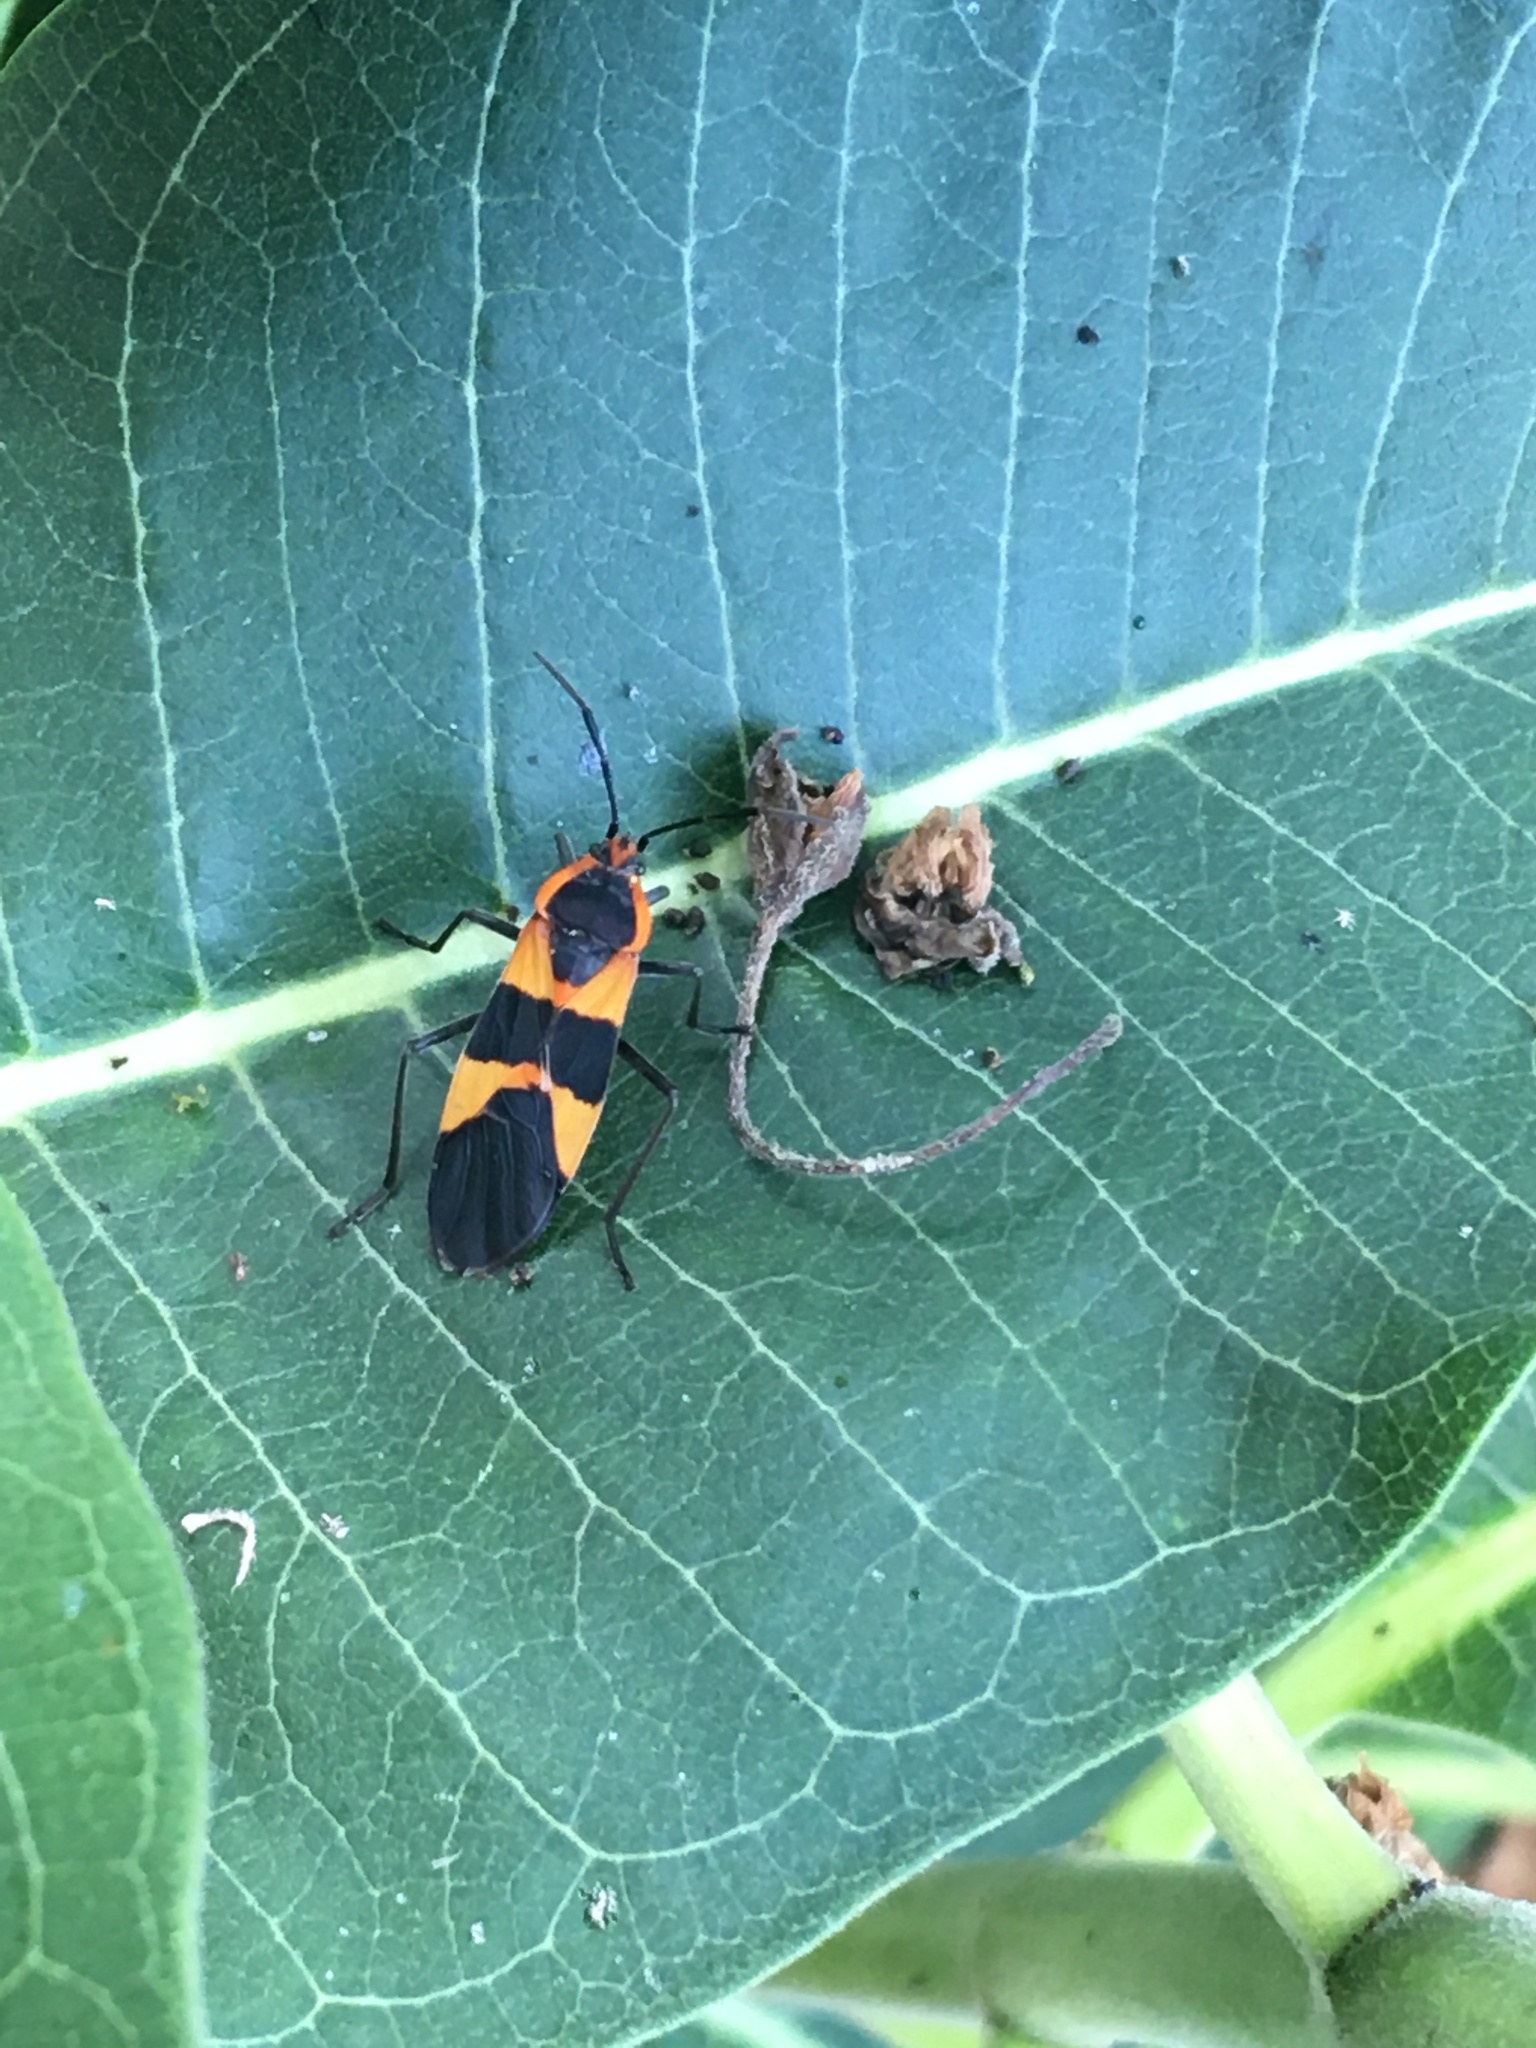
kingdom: Animalia
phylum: Arthropoda
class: Insecta
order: Hemiptera
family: Lygaeidae
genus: Oncopeltus
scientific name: Oncopeltus fasciatus
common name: Large milkweed bug
